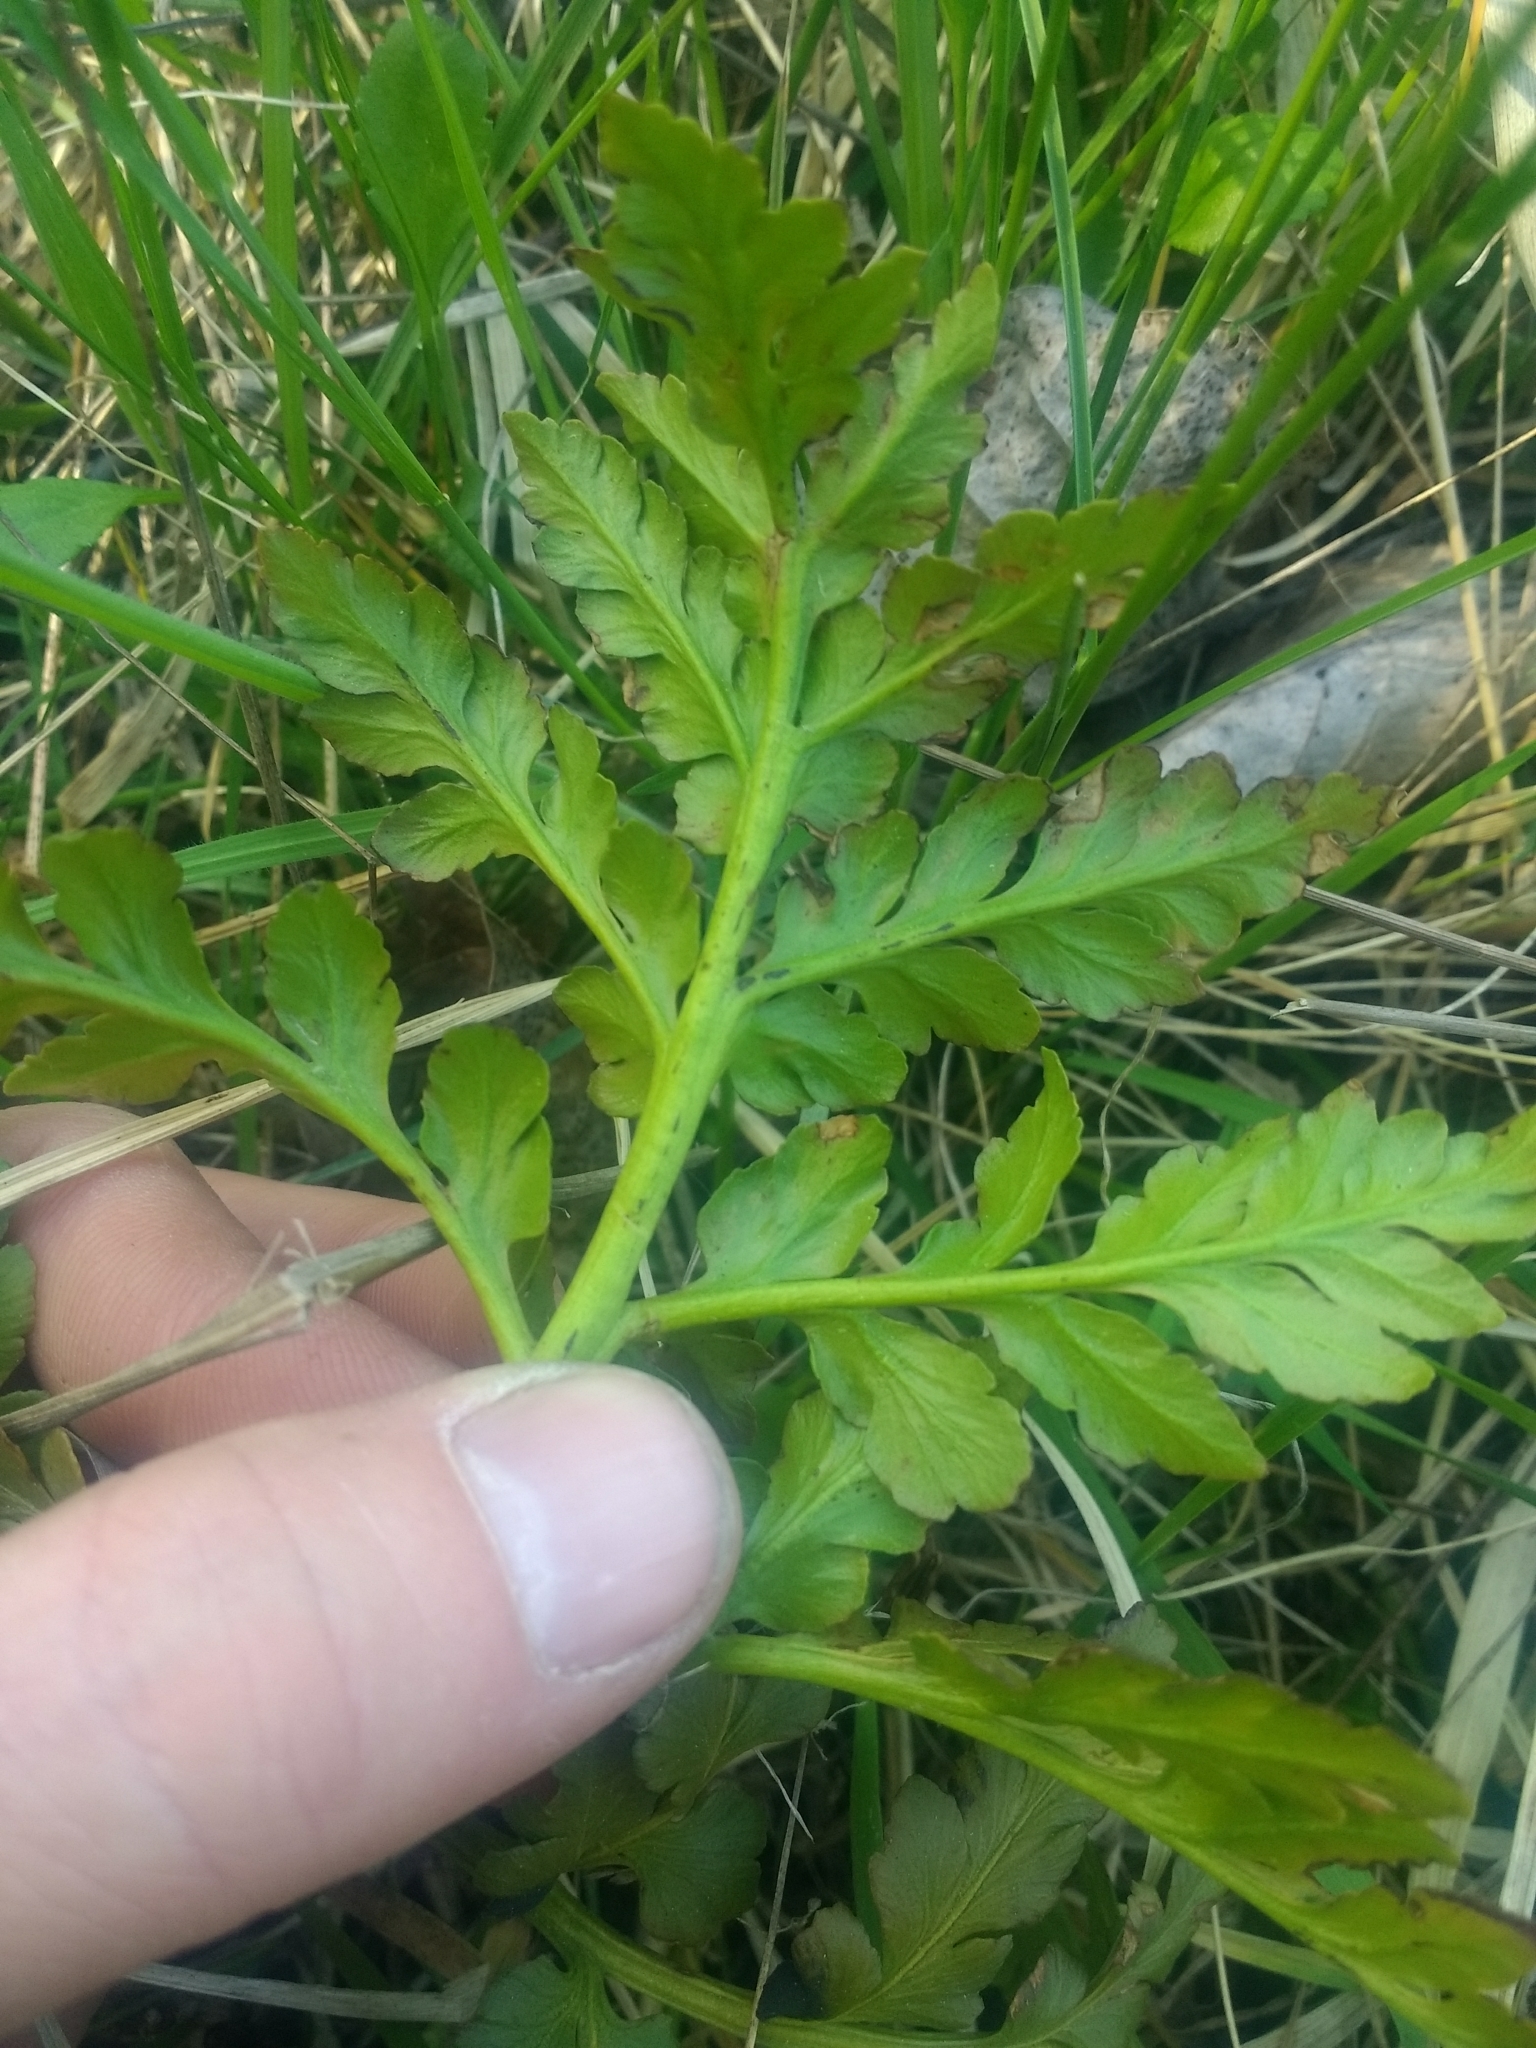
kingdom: Plantae
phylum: Tracheophyta
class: Polypodiopsida
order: Ophioglossales
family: Ophioglossaceae
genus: Sceptridium
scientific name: Sceptridium multifidum
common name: Leathery grape fern
